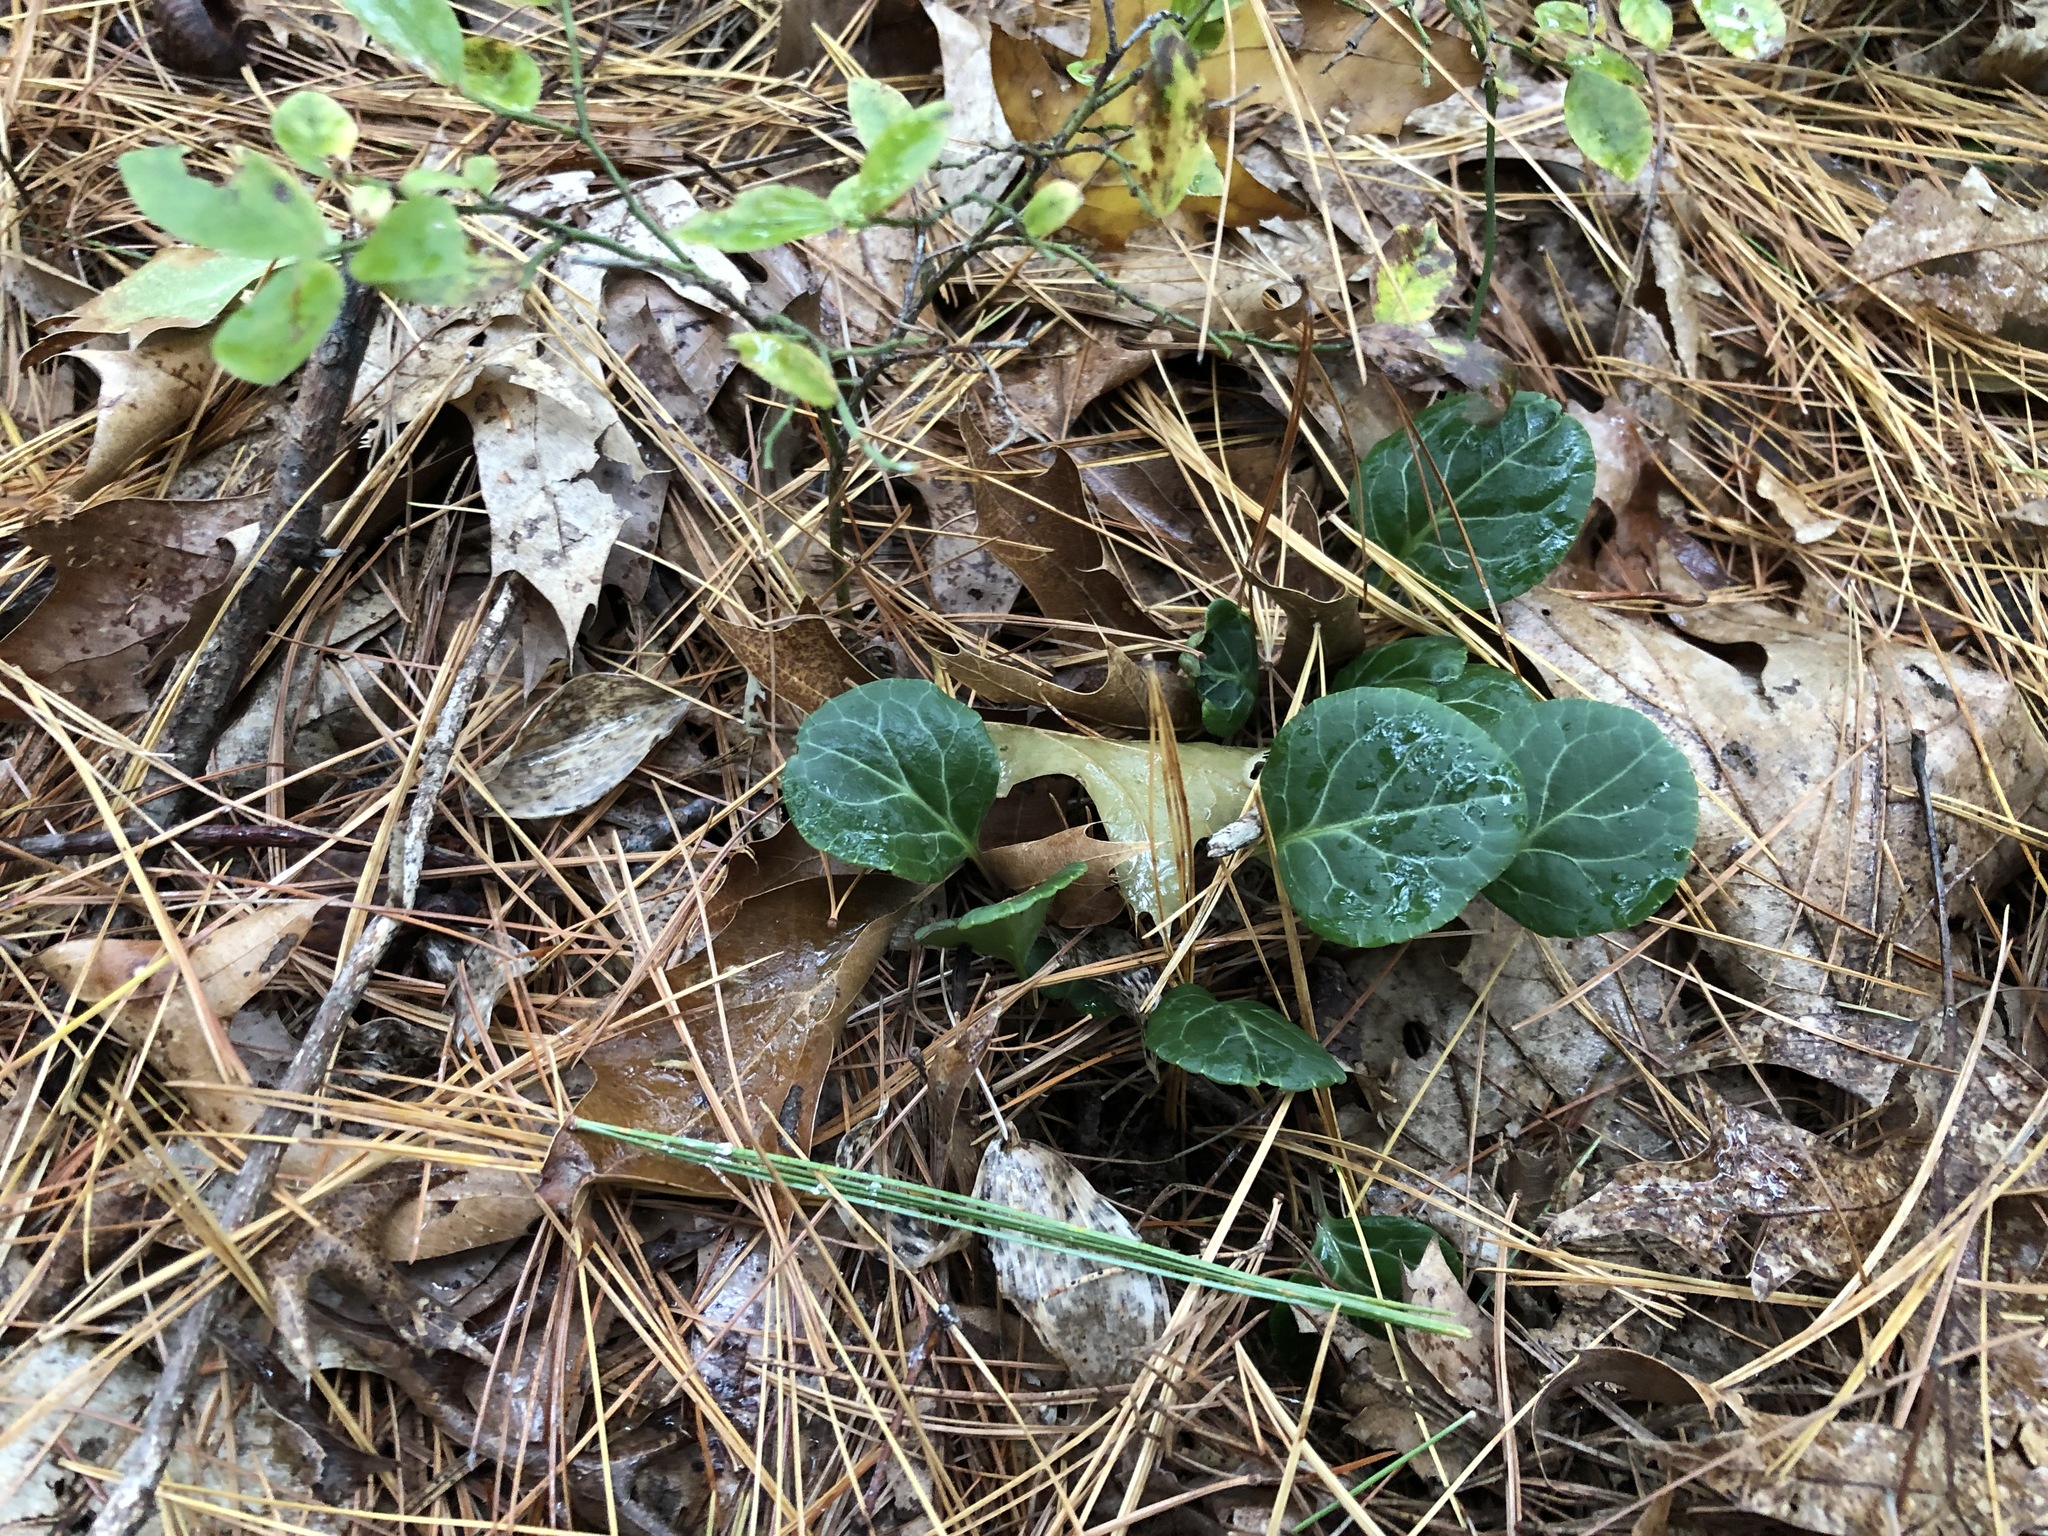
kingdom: Plantae
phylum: Tracheophyta
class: Magnoliopsida
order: Ericales
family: Ericaceae
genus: Pyrola
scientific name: Pyrola americana
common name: American wintergreen
